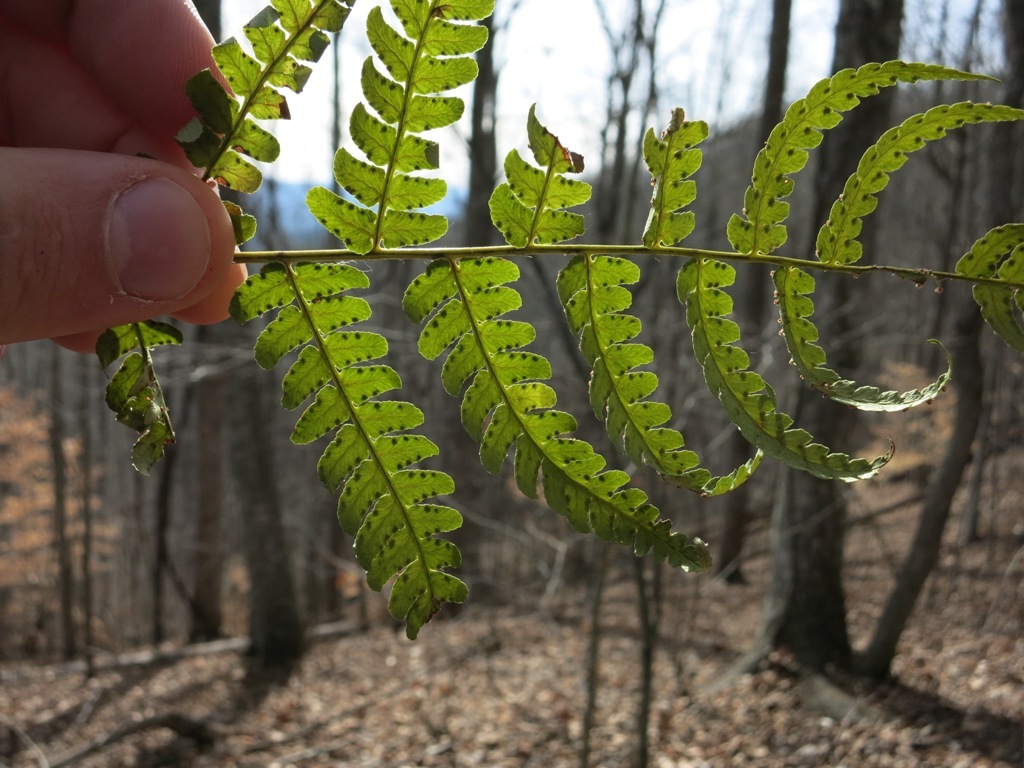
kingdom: Plantae
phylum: Tracheophyta
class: Polypodiopsida
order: Polypodiales
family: Dryopteridaceae
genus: Dryopteris
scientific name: Dryopteris marginalis
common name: Marginal wood fern
